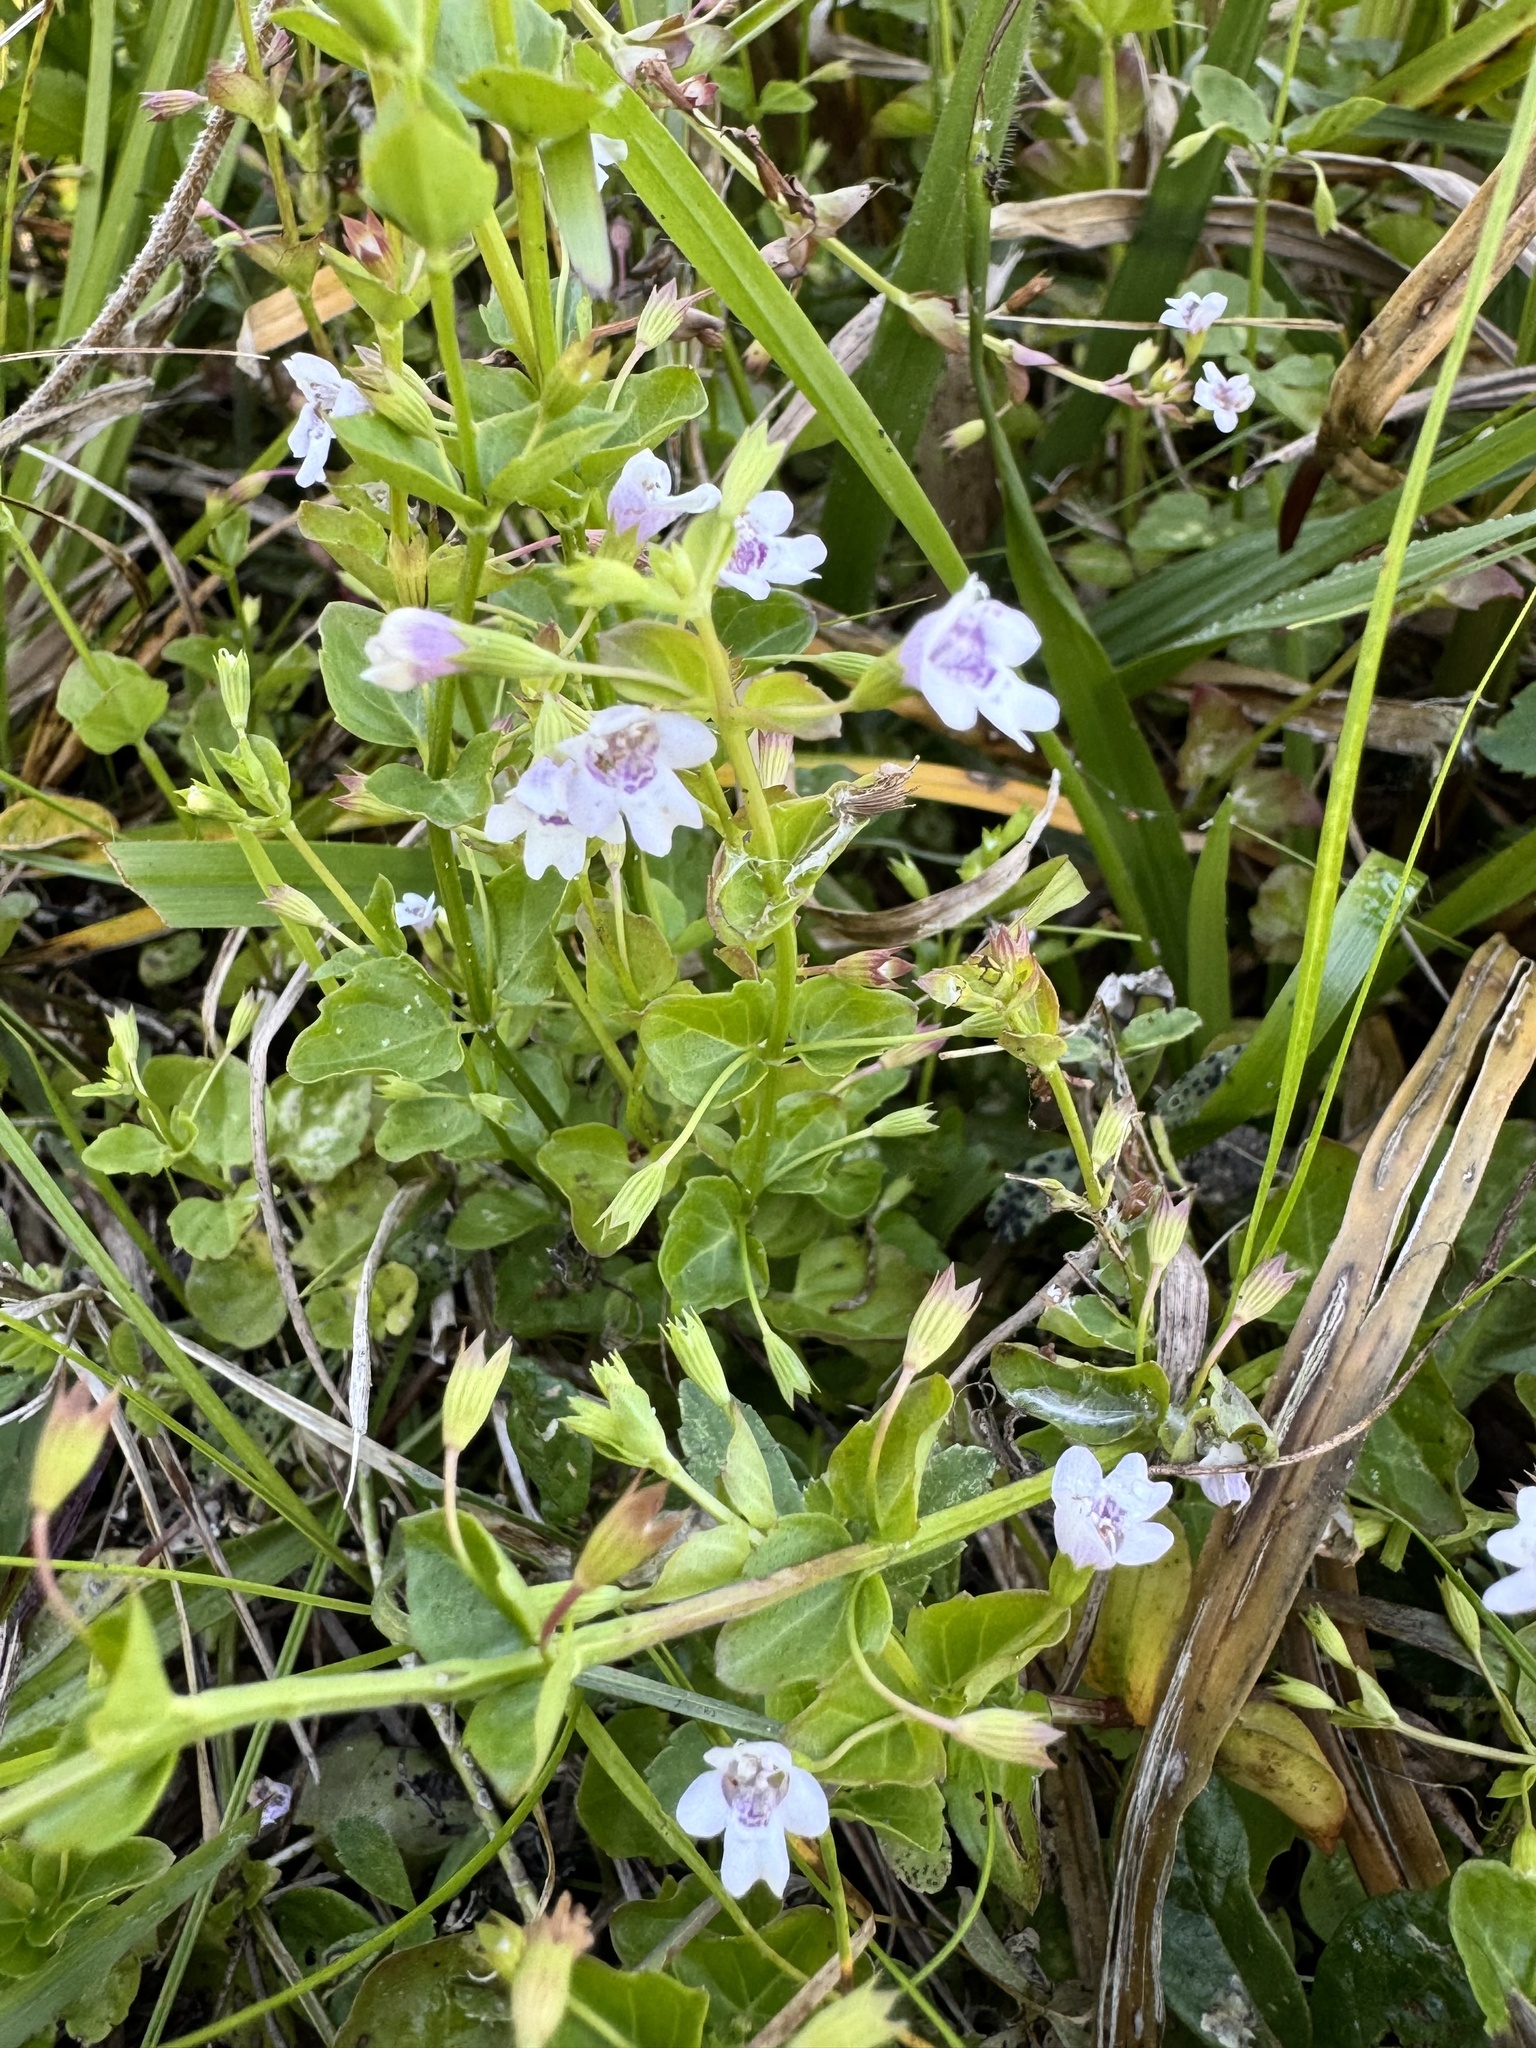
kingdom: Plantae
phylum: Tracheophyta
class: Magnoliopsida
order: Lamiales
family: Lamiaceae
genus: Clinopodium
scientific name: Clinopodium brownei
